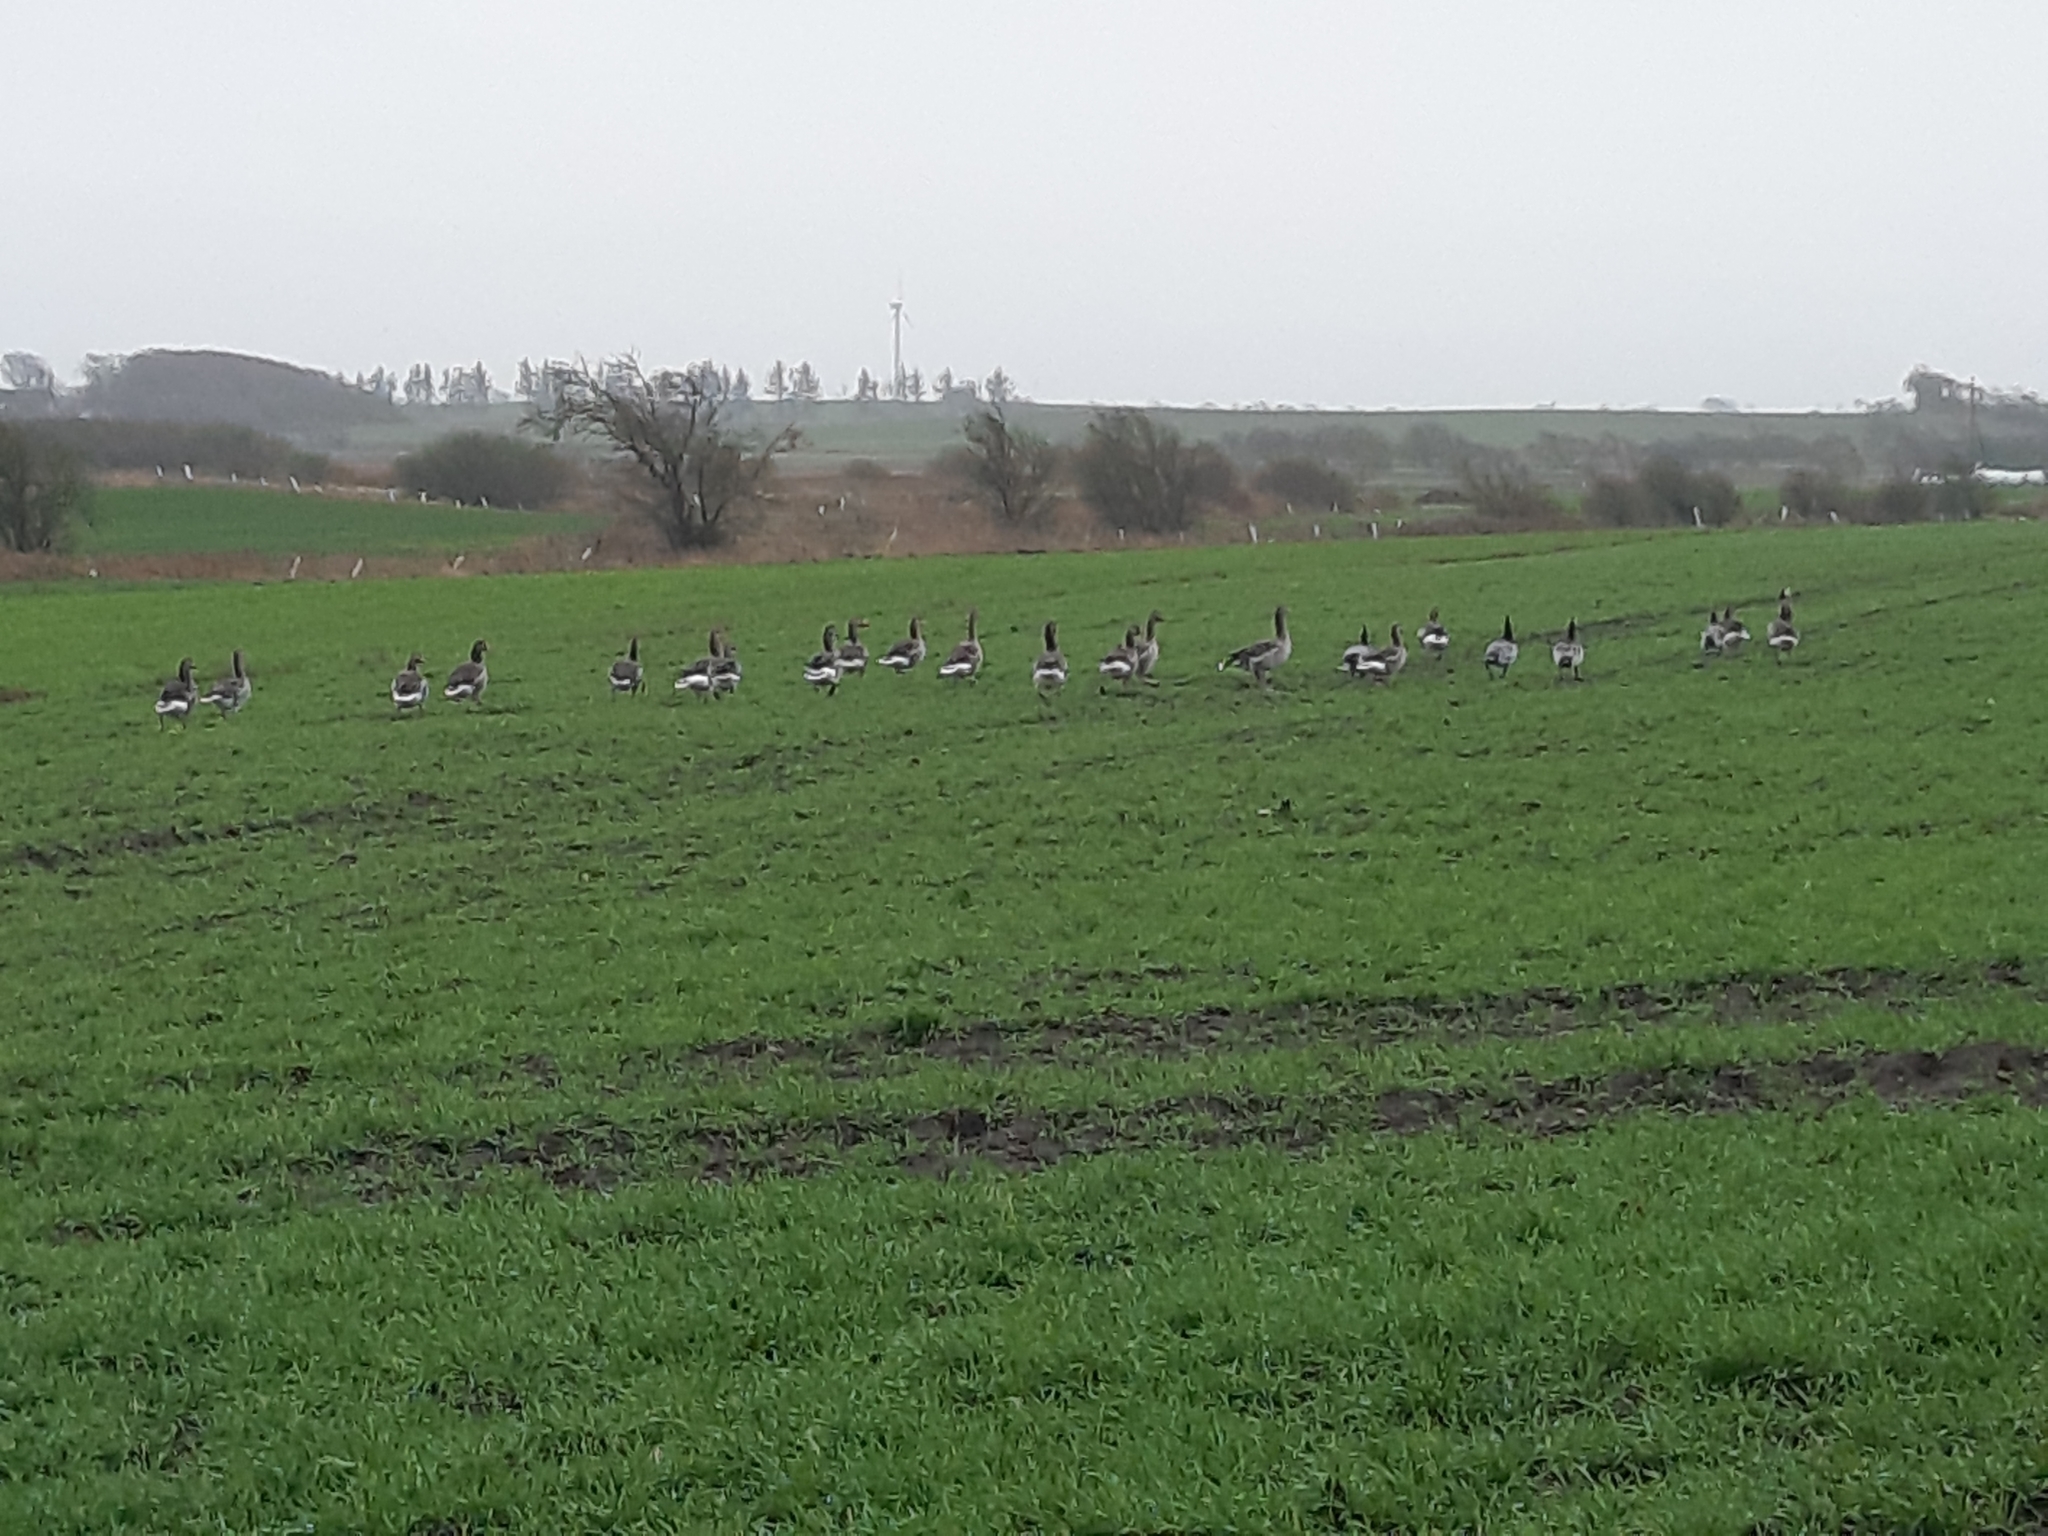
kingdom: Animalia
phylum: Chordata
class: Aves
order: Anseriformes
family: Anatidae
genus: Branta
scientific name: Branta leucopsis
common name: Barnacle goose
